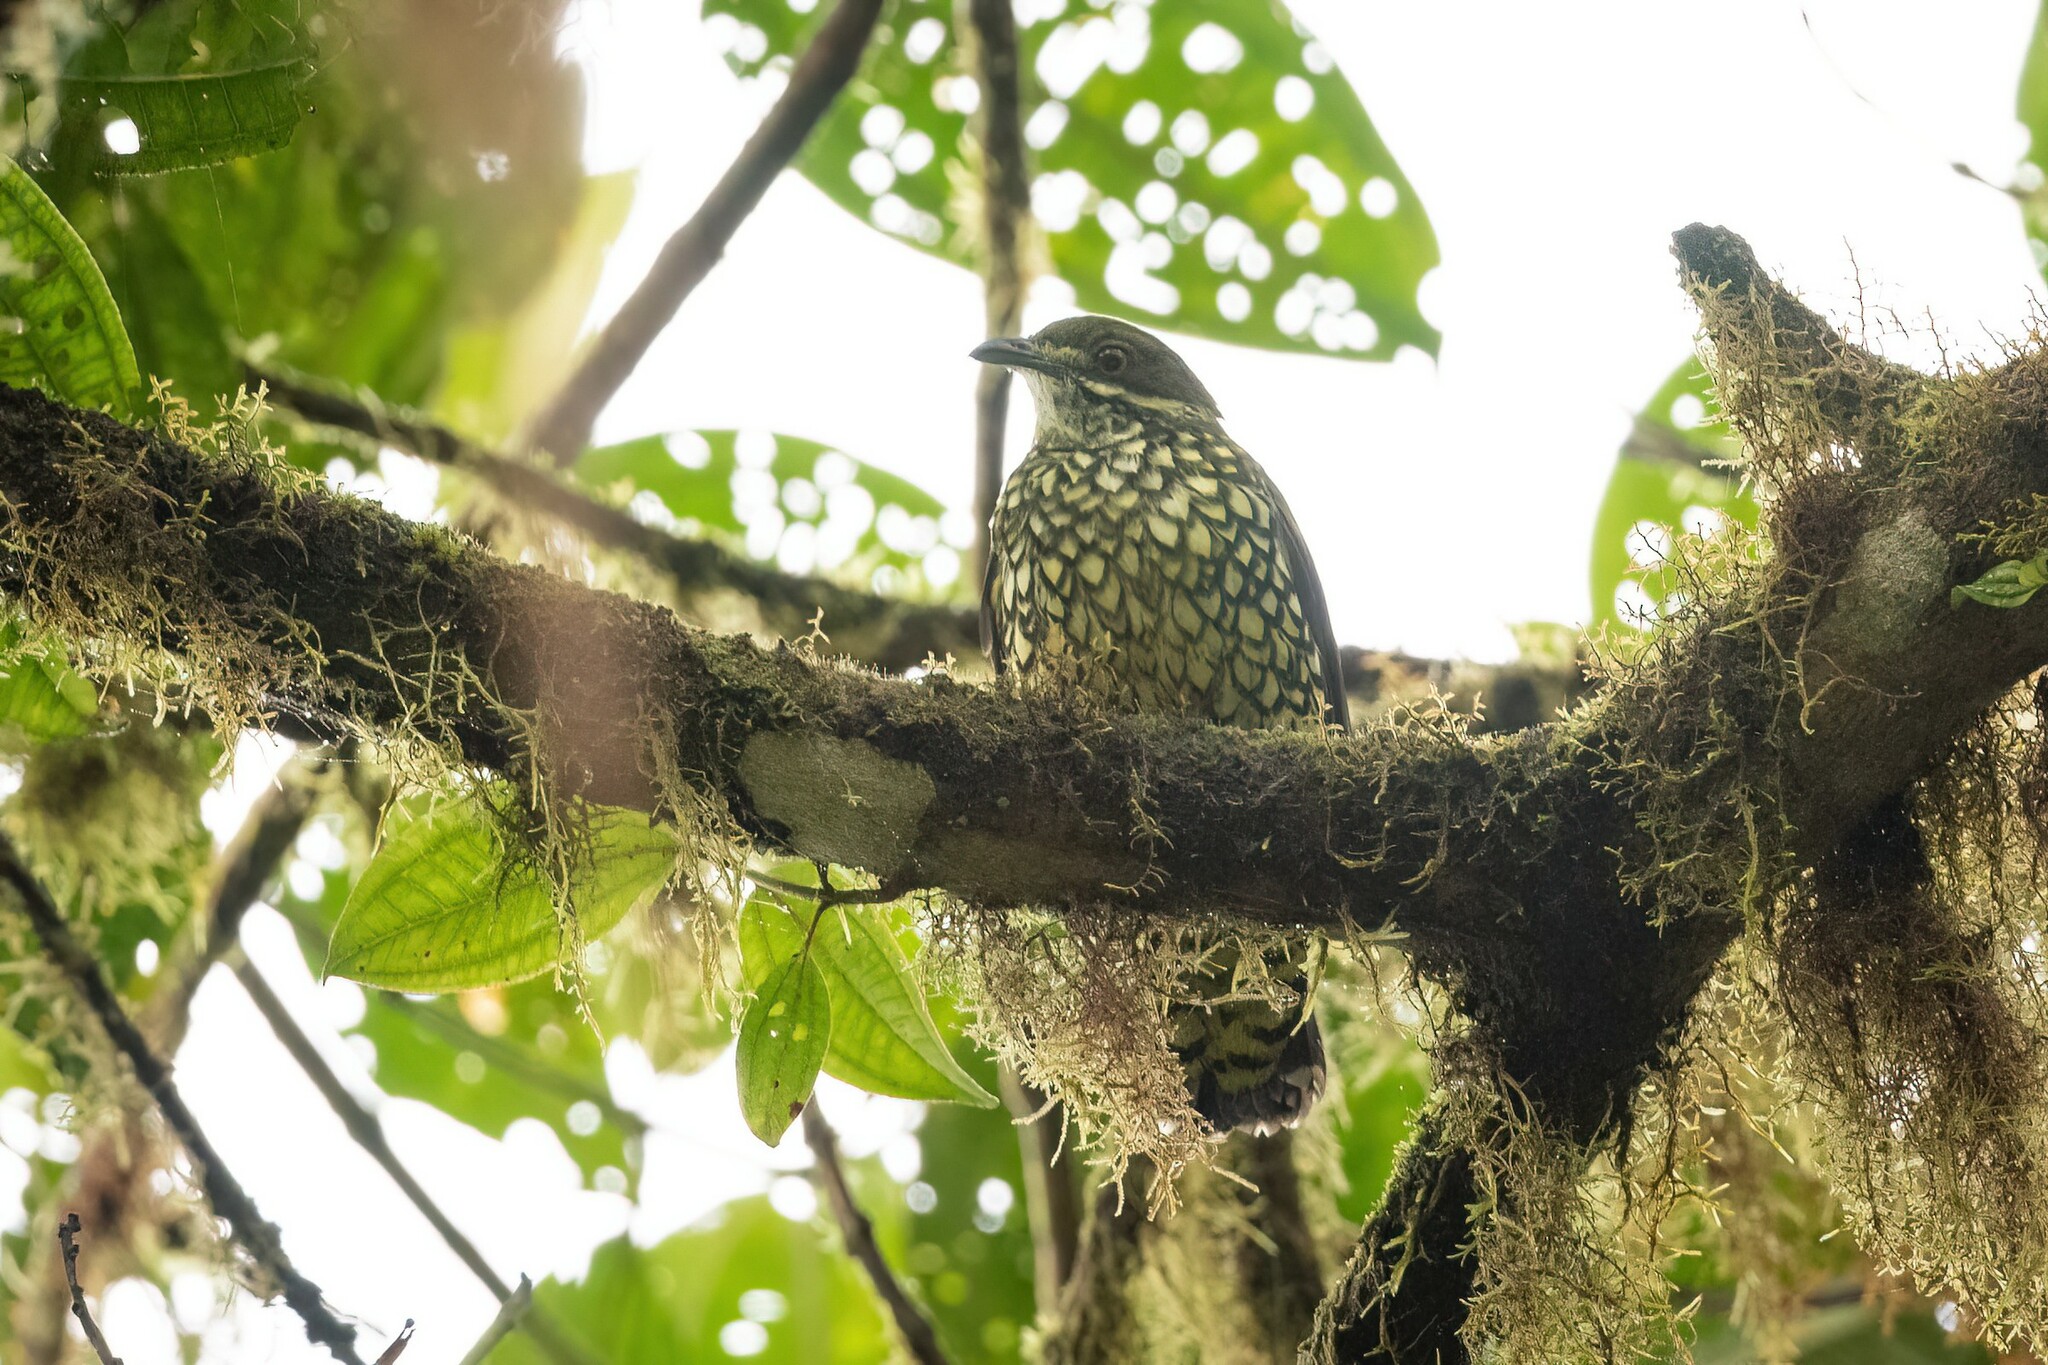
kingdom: Animalia
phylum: Chordata
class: Aves
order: Passeriformes
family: Cotingidae
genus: Ampelioides
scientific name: Ampelioides tschudii
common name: Scaled fruiteater
